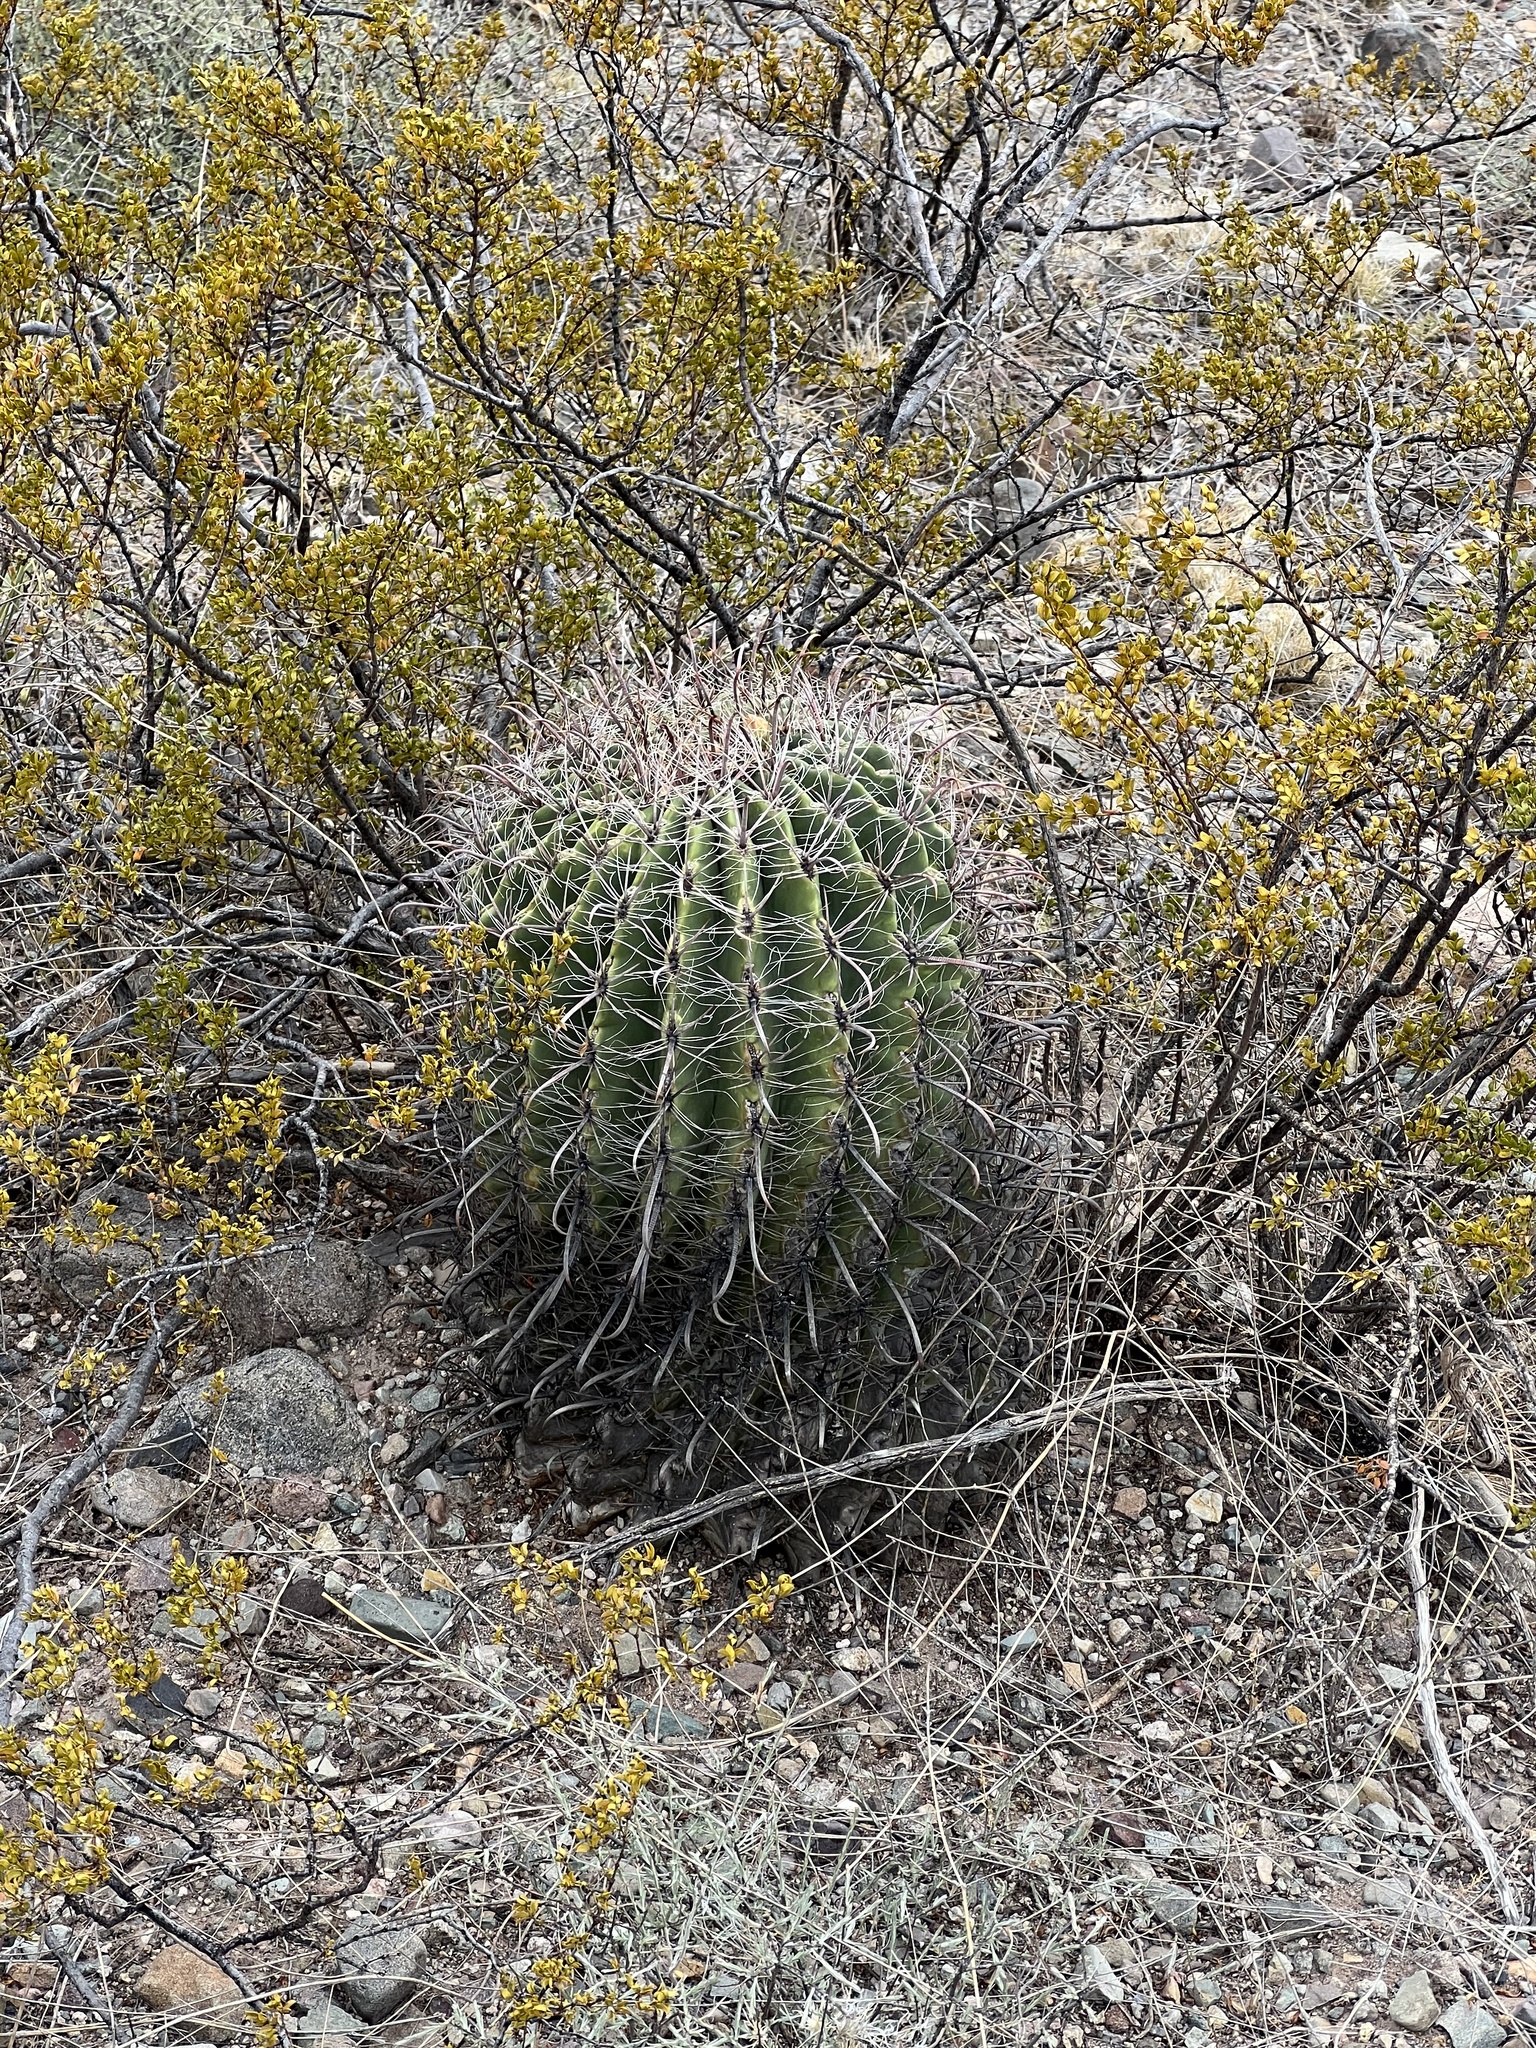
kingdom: Plantae
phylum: Tracheophyta
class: Magnoliopsida
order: Caryophyllales
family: Cactaceae
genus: Ferocactus
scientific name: Ferocactus wislizeni
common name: Candy barrel cactus
